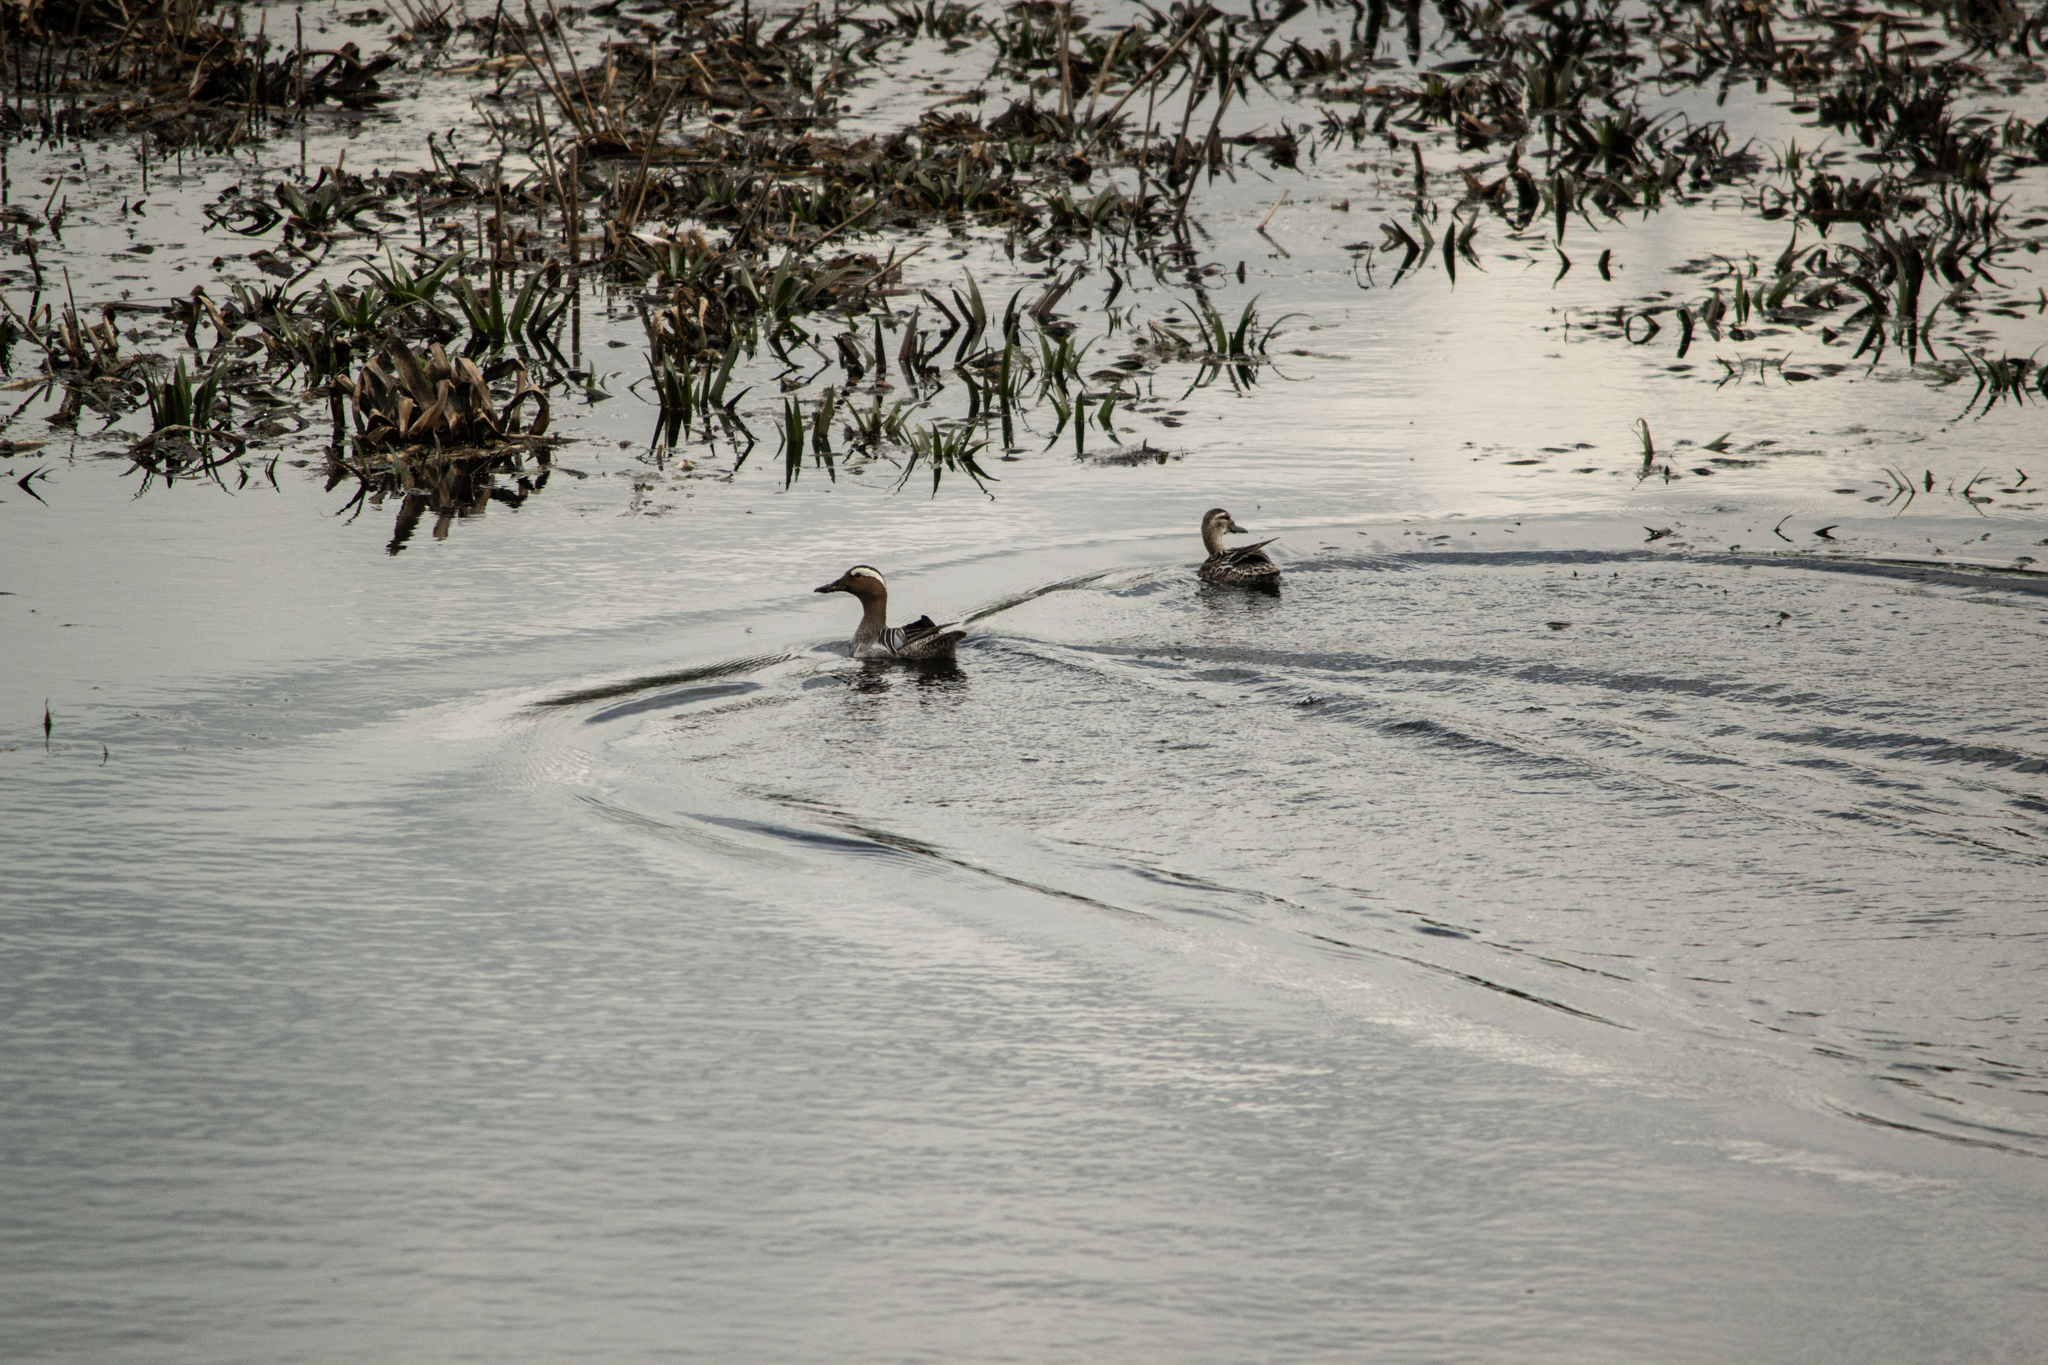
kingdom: Animalia
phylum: Chordata
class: Aves
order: Anseriformes
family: Anatidae
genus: Spatula
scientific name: Spatula querquedula
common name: Garganey
